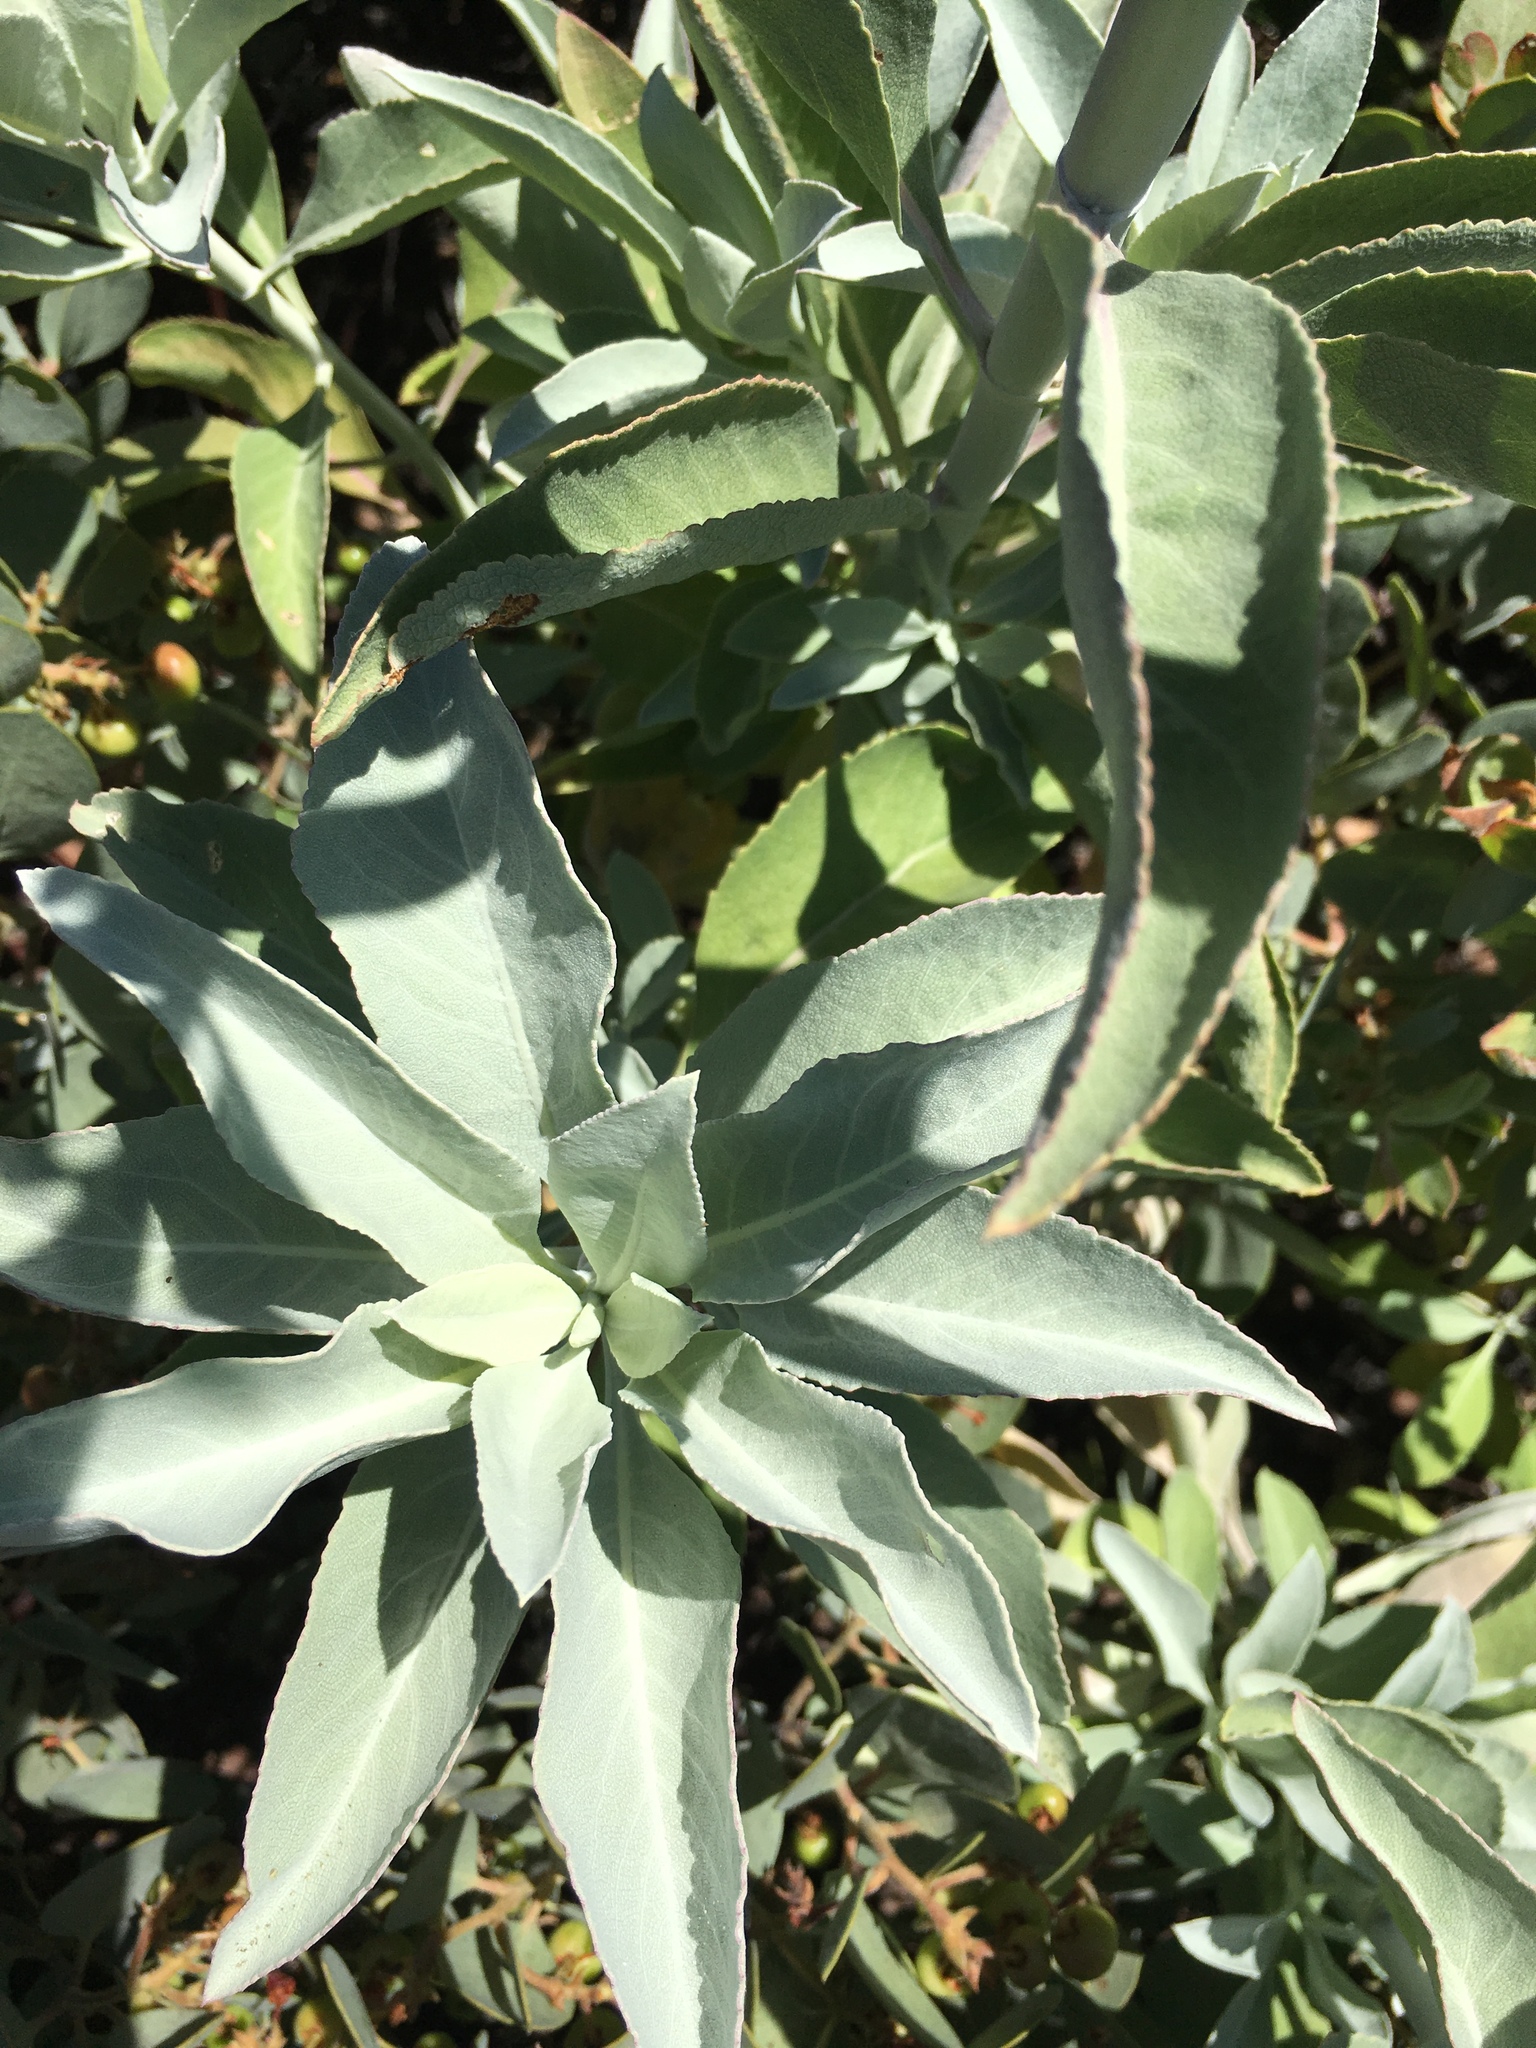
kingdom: Plantae
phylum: Tracheophyta
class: Magnoliopsida
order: Lamiales
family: Lamiaceae
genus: Salvia
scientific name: Salvia apiana
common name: White sage
